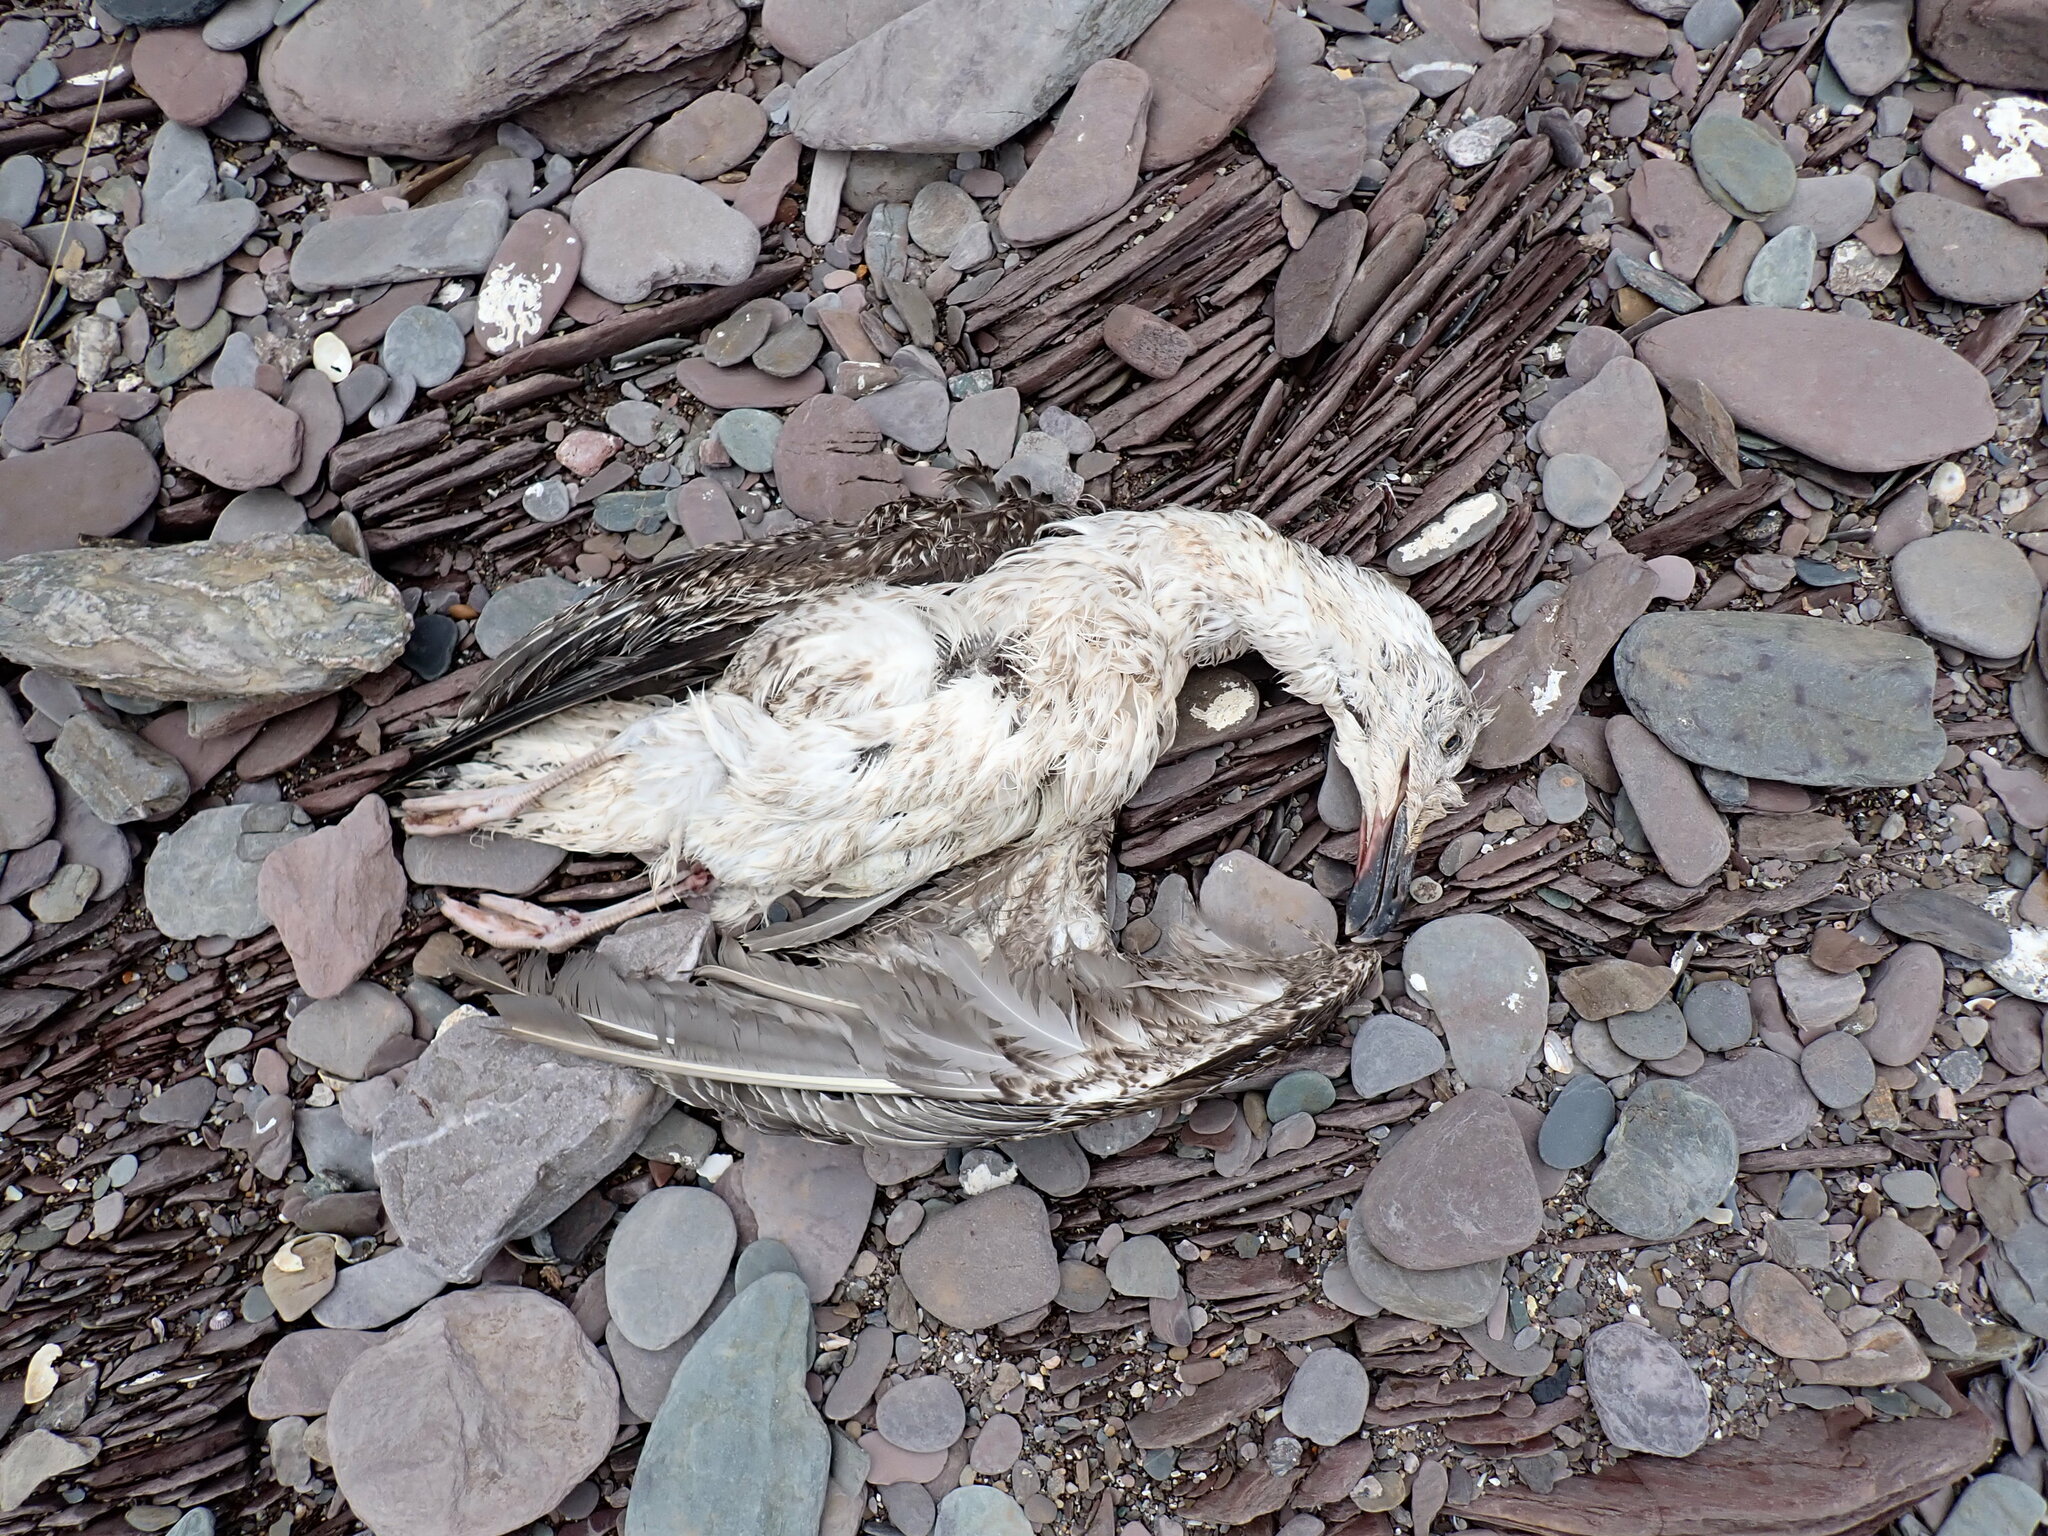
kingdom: Animalia
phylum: Chordata
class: Aves
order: Charadriiformes
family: Laridae
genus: Larus
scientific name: Larus marinus
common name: Great black-backed gull
